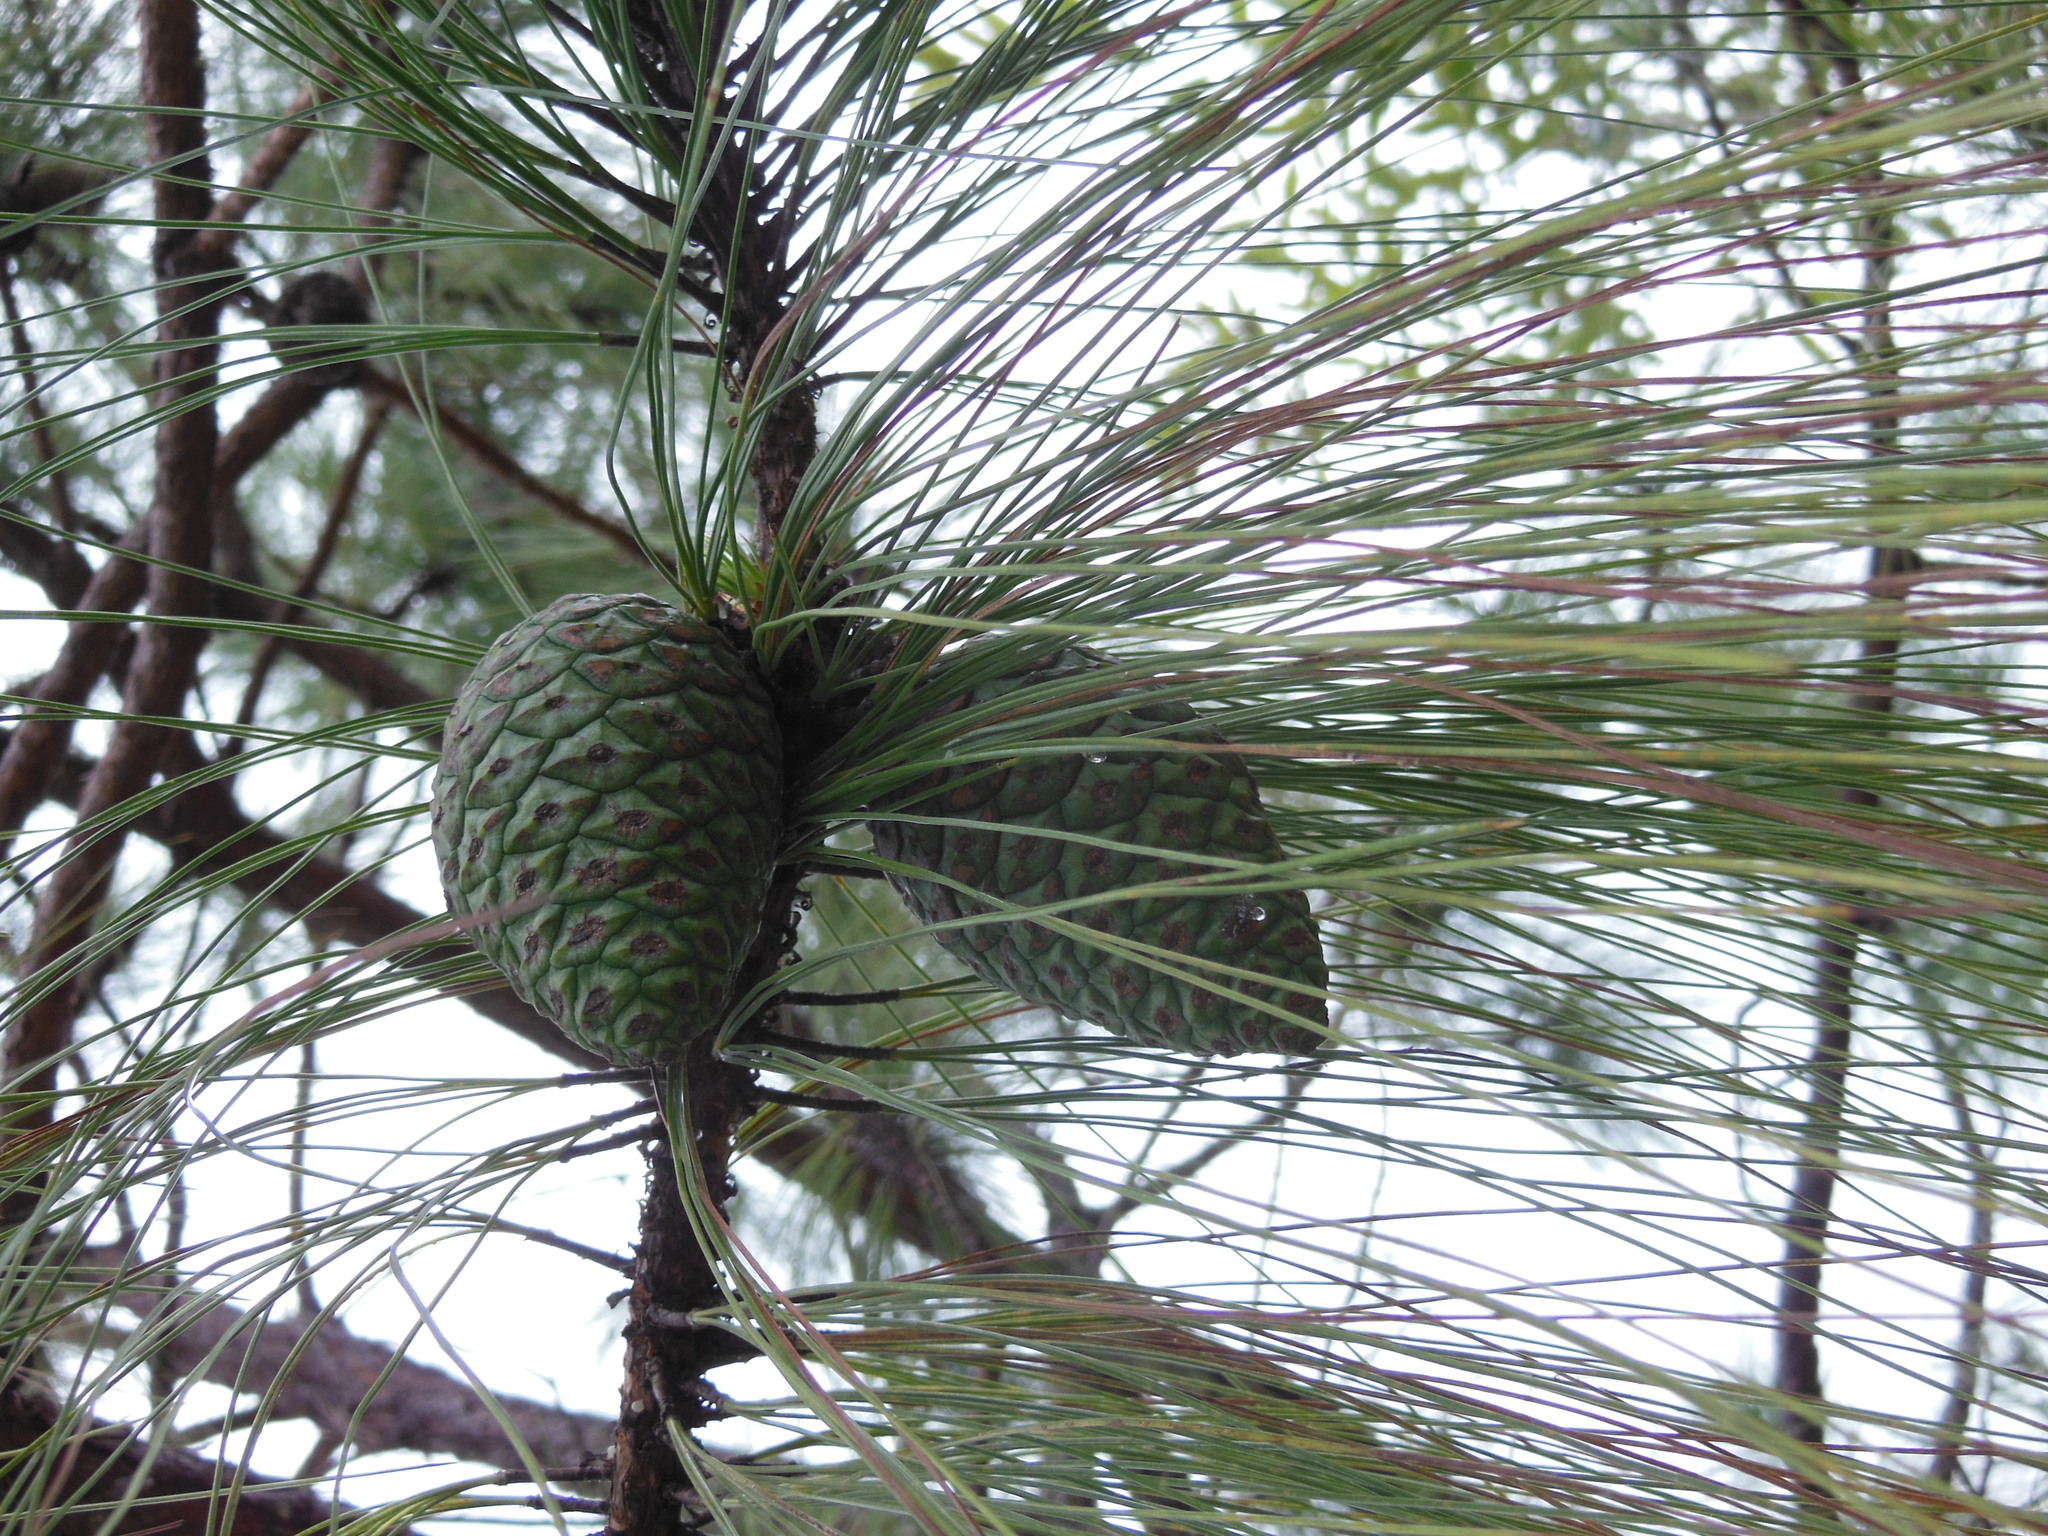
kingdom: Plantae
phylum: Tracheophyta
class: Pinopsida
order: Pinales
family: Pinaceae
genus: Pinus
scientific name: Pinus oocarpa
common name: Egg-cone pine
